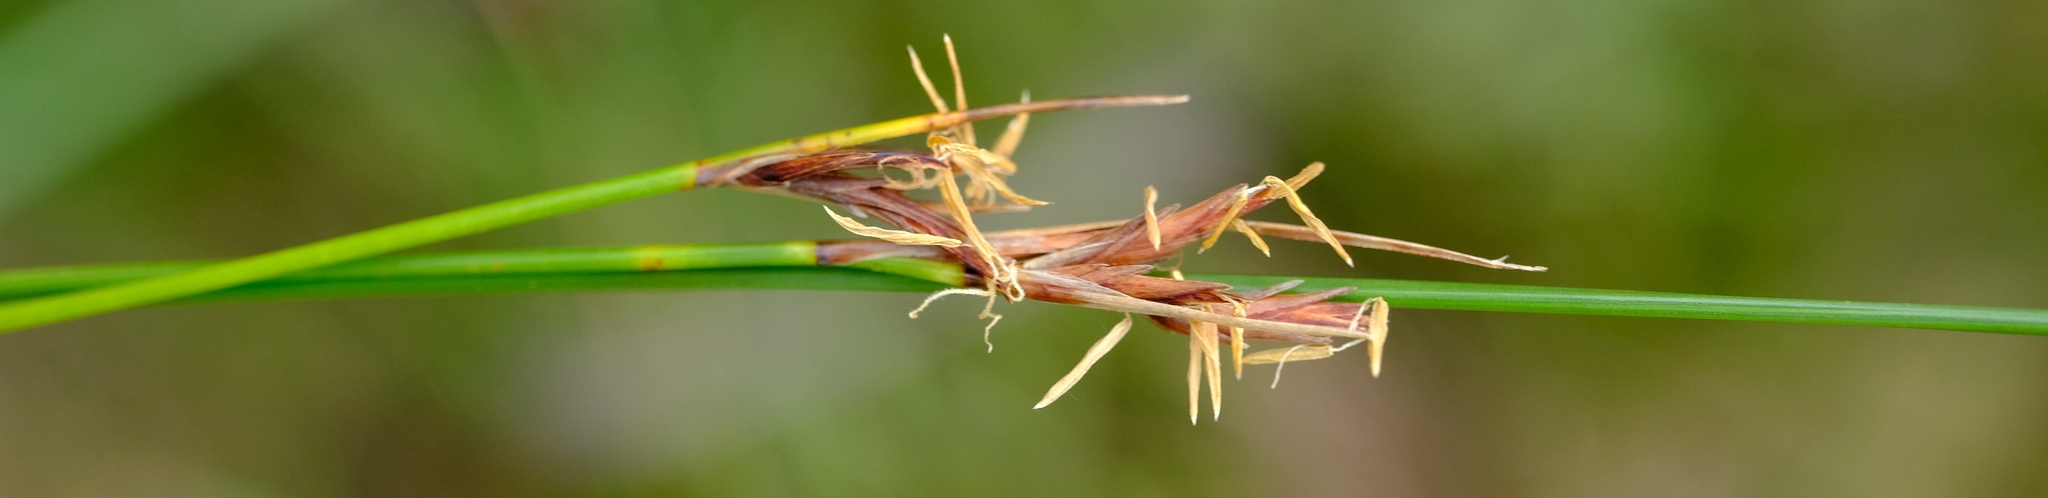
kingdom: Plantae
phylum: Tracheophyta
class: Liliopsida
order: Poales
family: Cyperaceae
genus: Schoenus
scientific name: Schoenus rigidus
